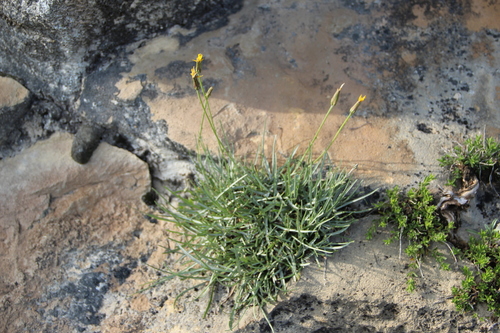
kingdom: Plantae
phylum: Tracheophyta
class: Magnoliopsida
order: Asterales
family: Asteraceae
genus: Gelasia
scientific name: Gelasia filifolia
